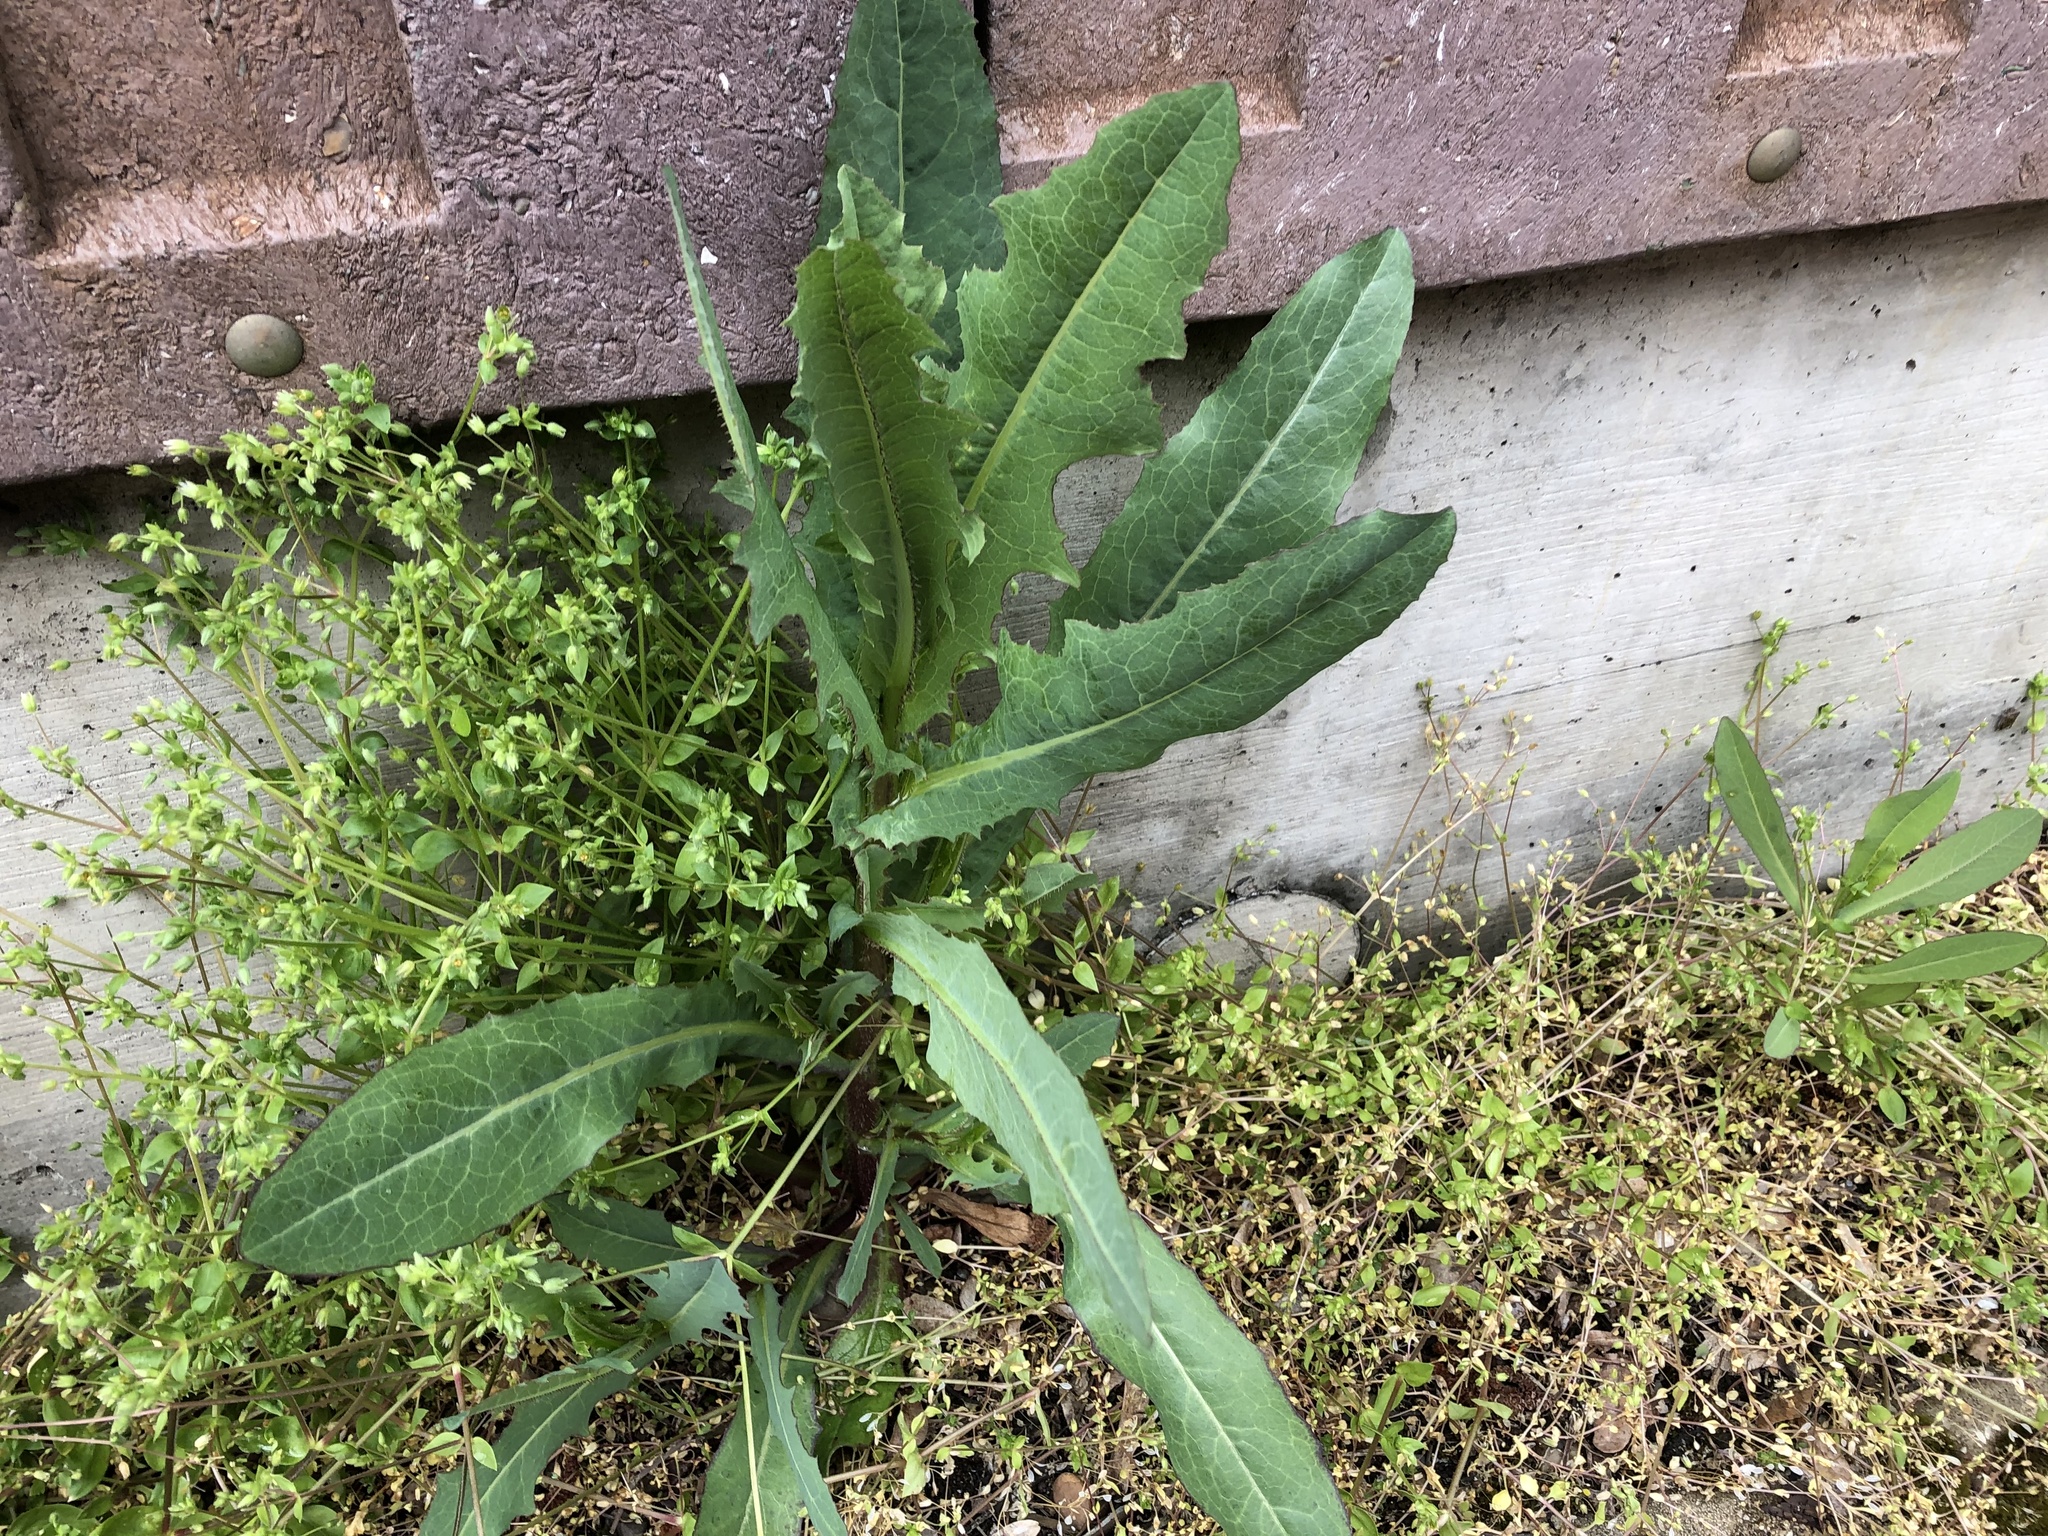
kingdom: Plantae
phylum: Tracheophyta
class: Magnoliopsida
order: Asterales
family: Asteraceae
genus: Lactuca
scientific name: Lactuca serriola
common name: Prickly lettuce
